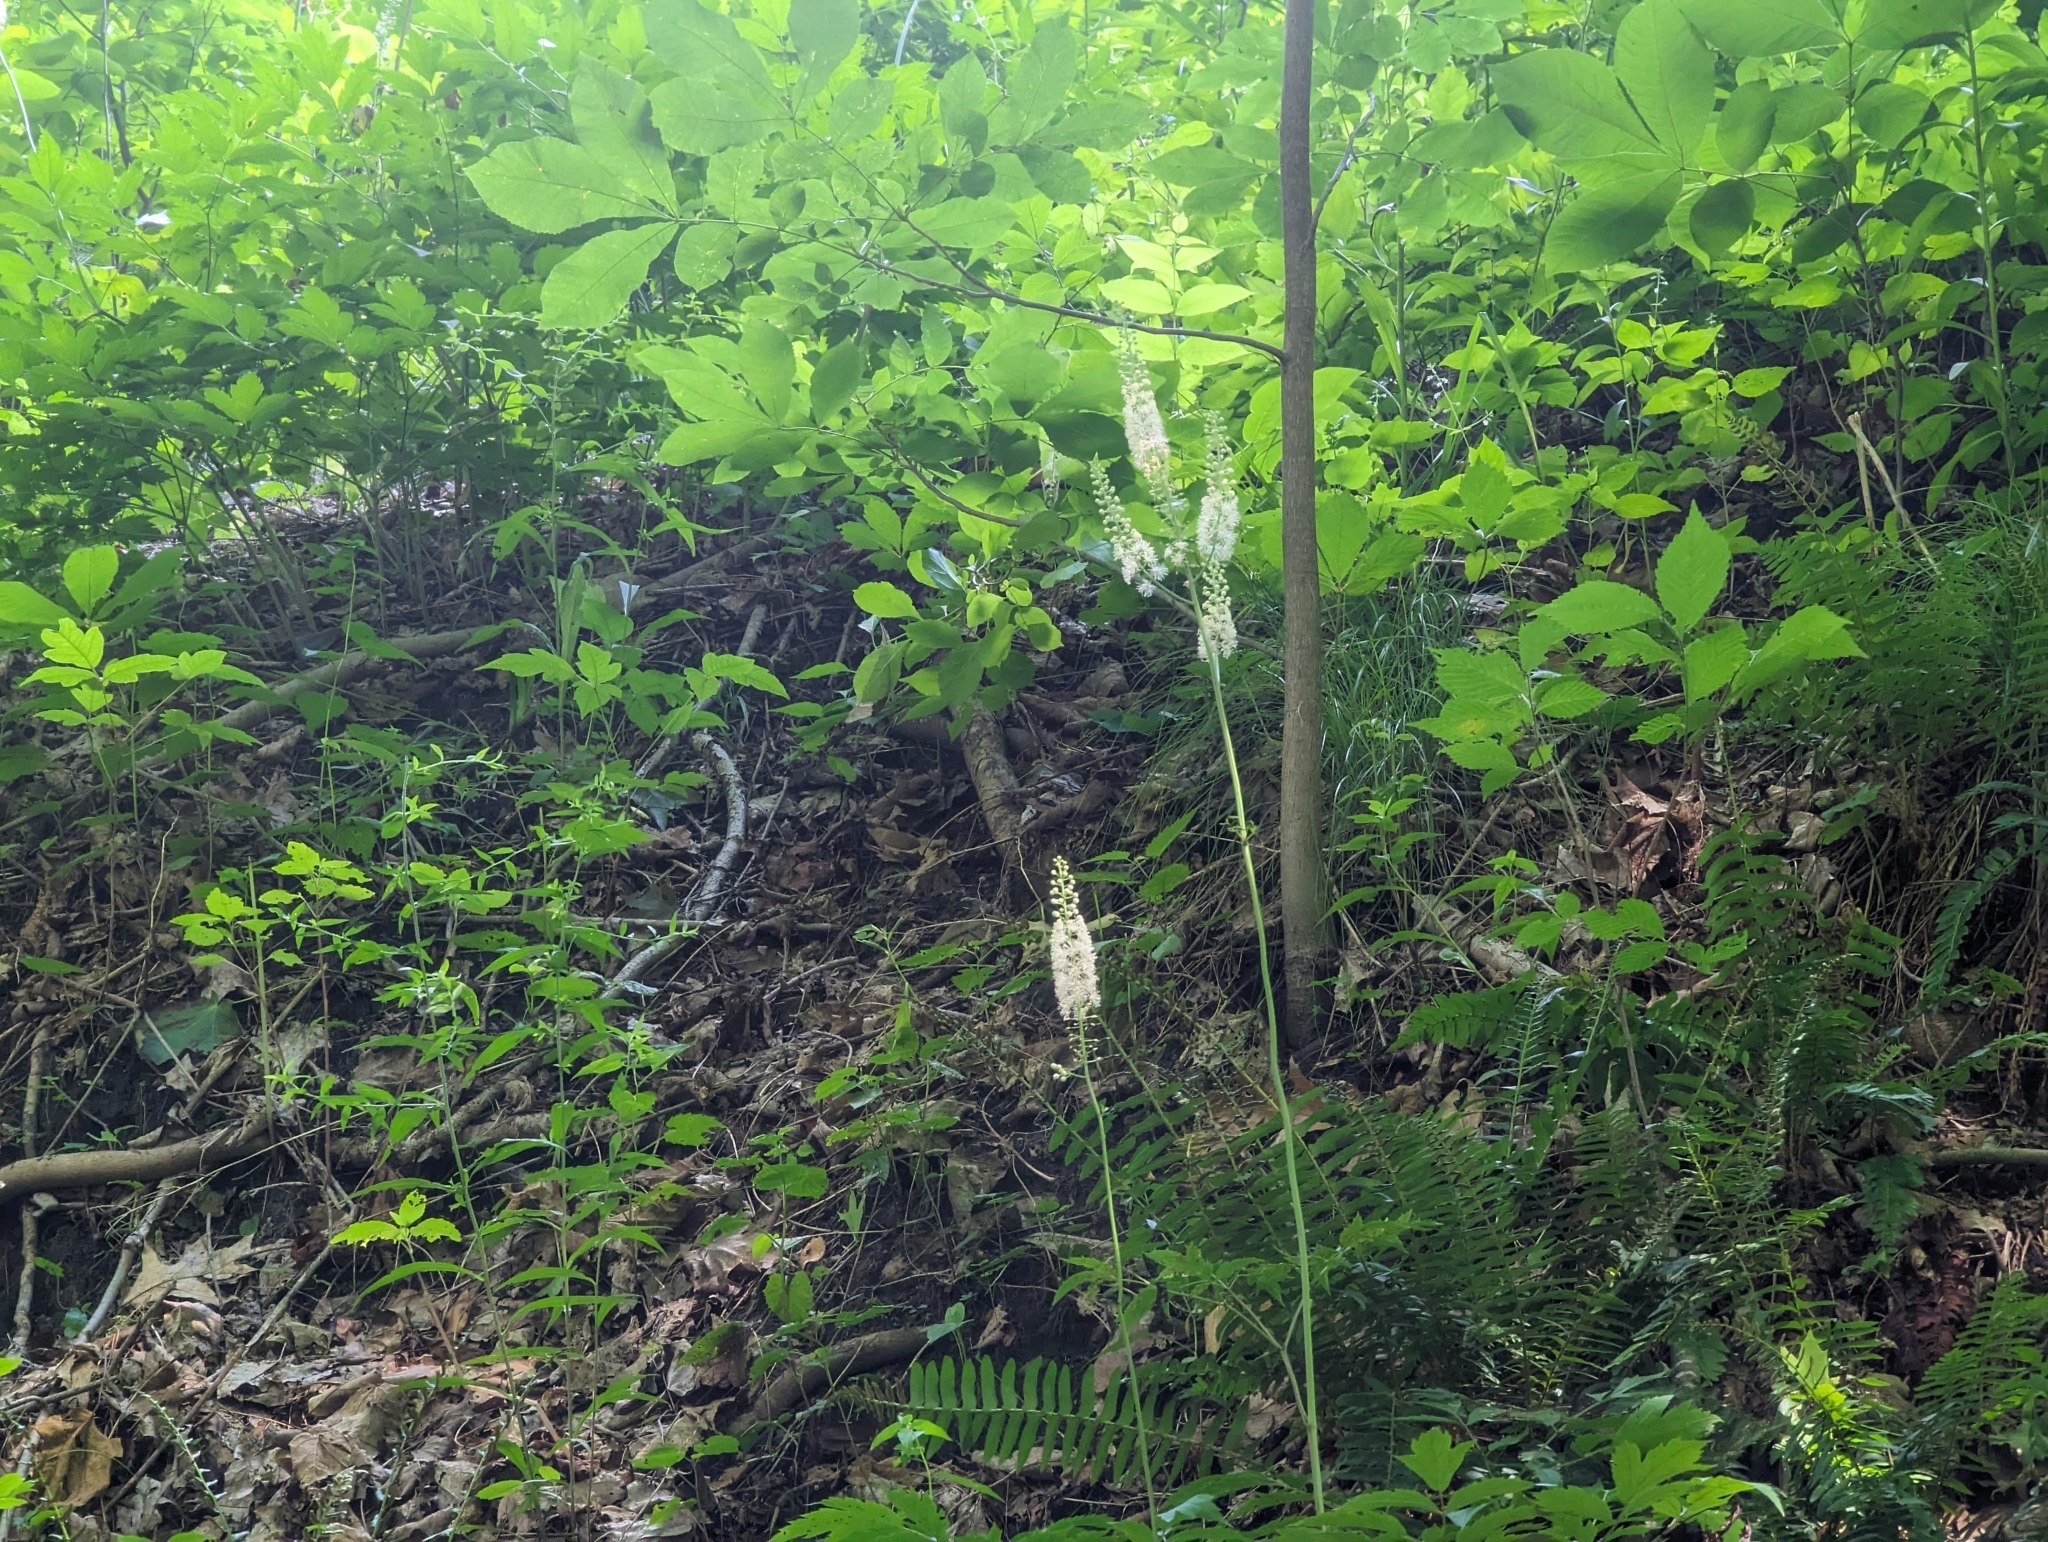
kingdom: Plantae
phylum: Tracheophyta
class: Magnoliopsida
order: Ranunculales
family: Ranunculaceae
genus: Actaea
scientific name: Actaea racemosa
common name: Black cohosh
